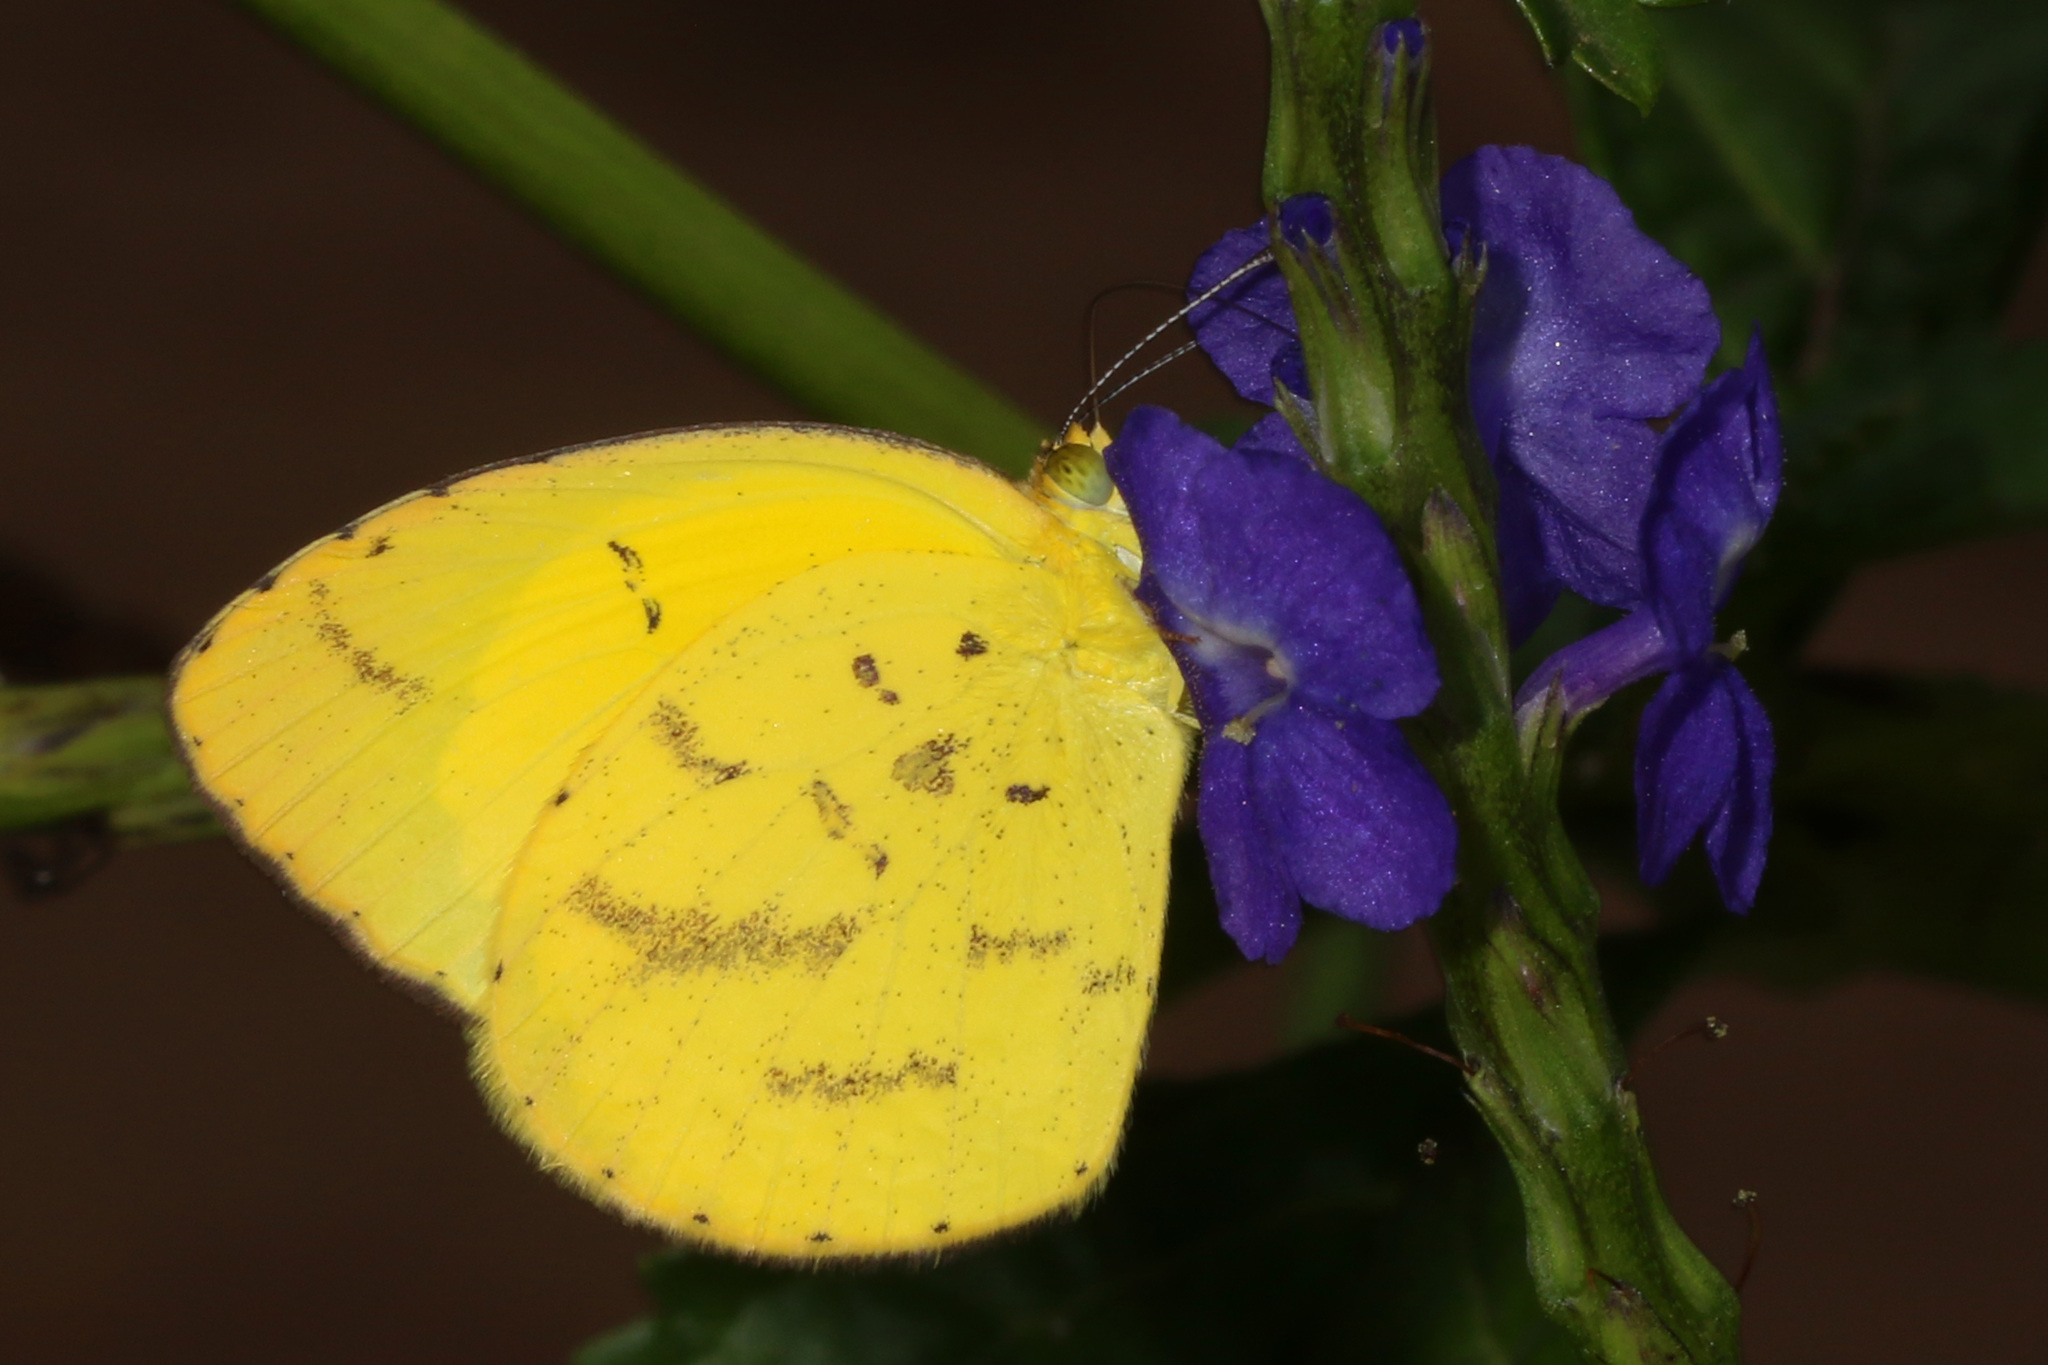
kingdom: Animalia
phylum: Arthropoda
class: Insecta
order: Lepidoptera
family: Pieridae
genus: Eurema
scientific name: Eurema brigitta
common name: Small grass yellow
